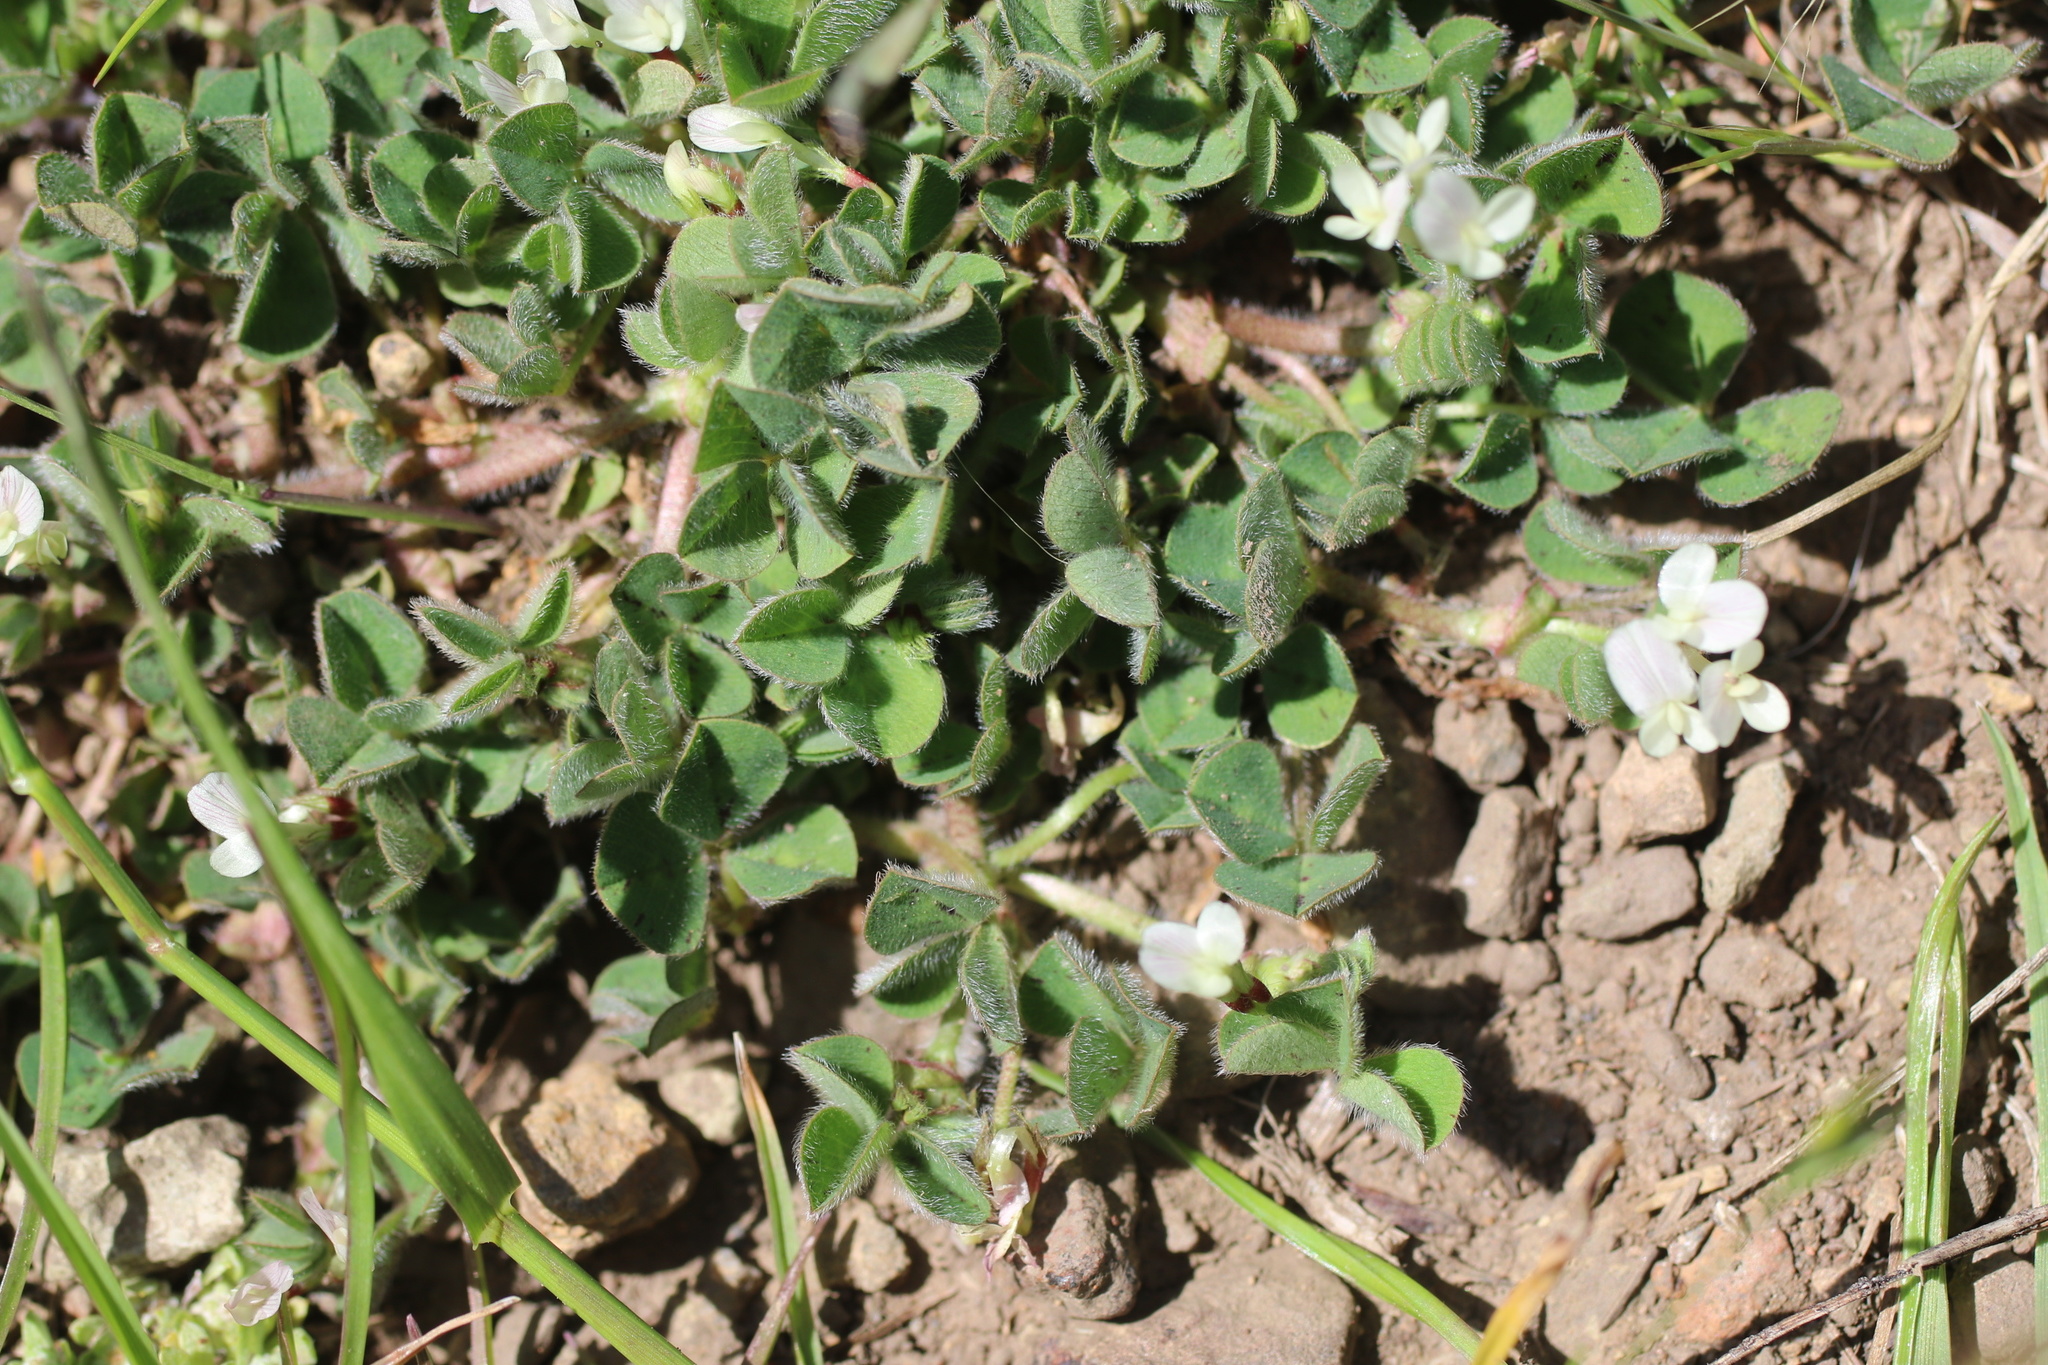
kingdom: Plantae
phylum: Tracheophyta
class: Magnoliopsida
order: Fabales
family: Fabaceae
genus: Trifolium
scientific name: Trifolium subterraneum
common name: Subterranean clover
